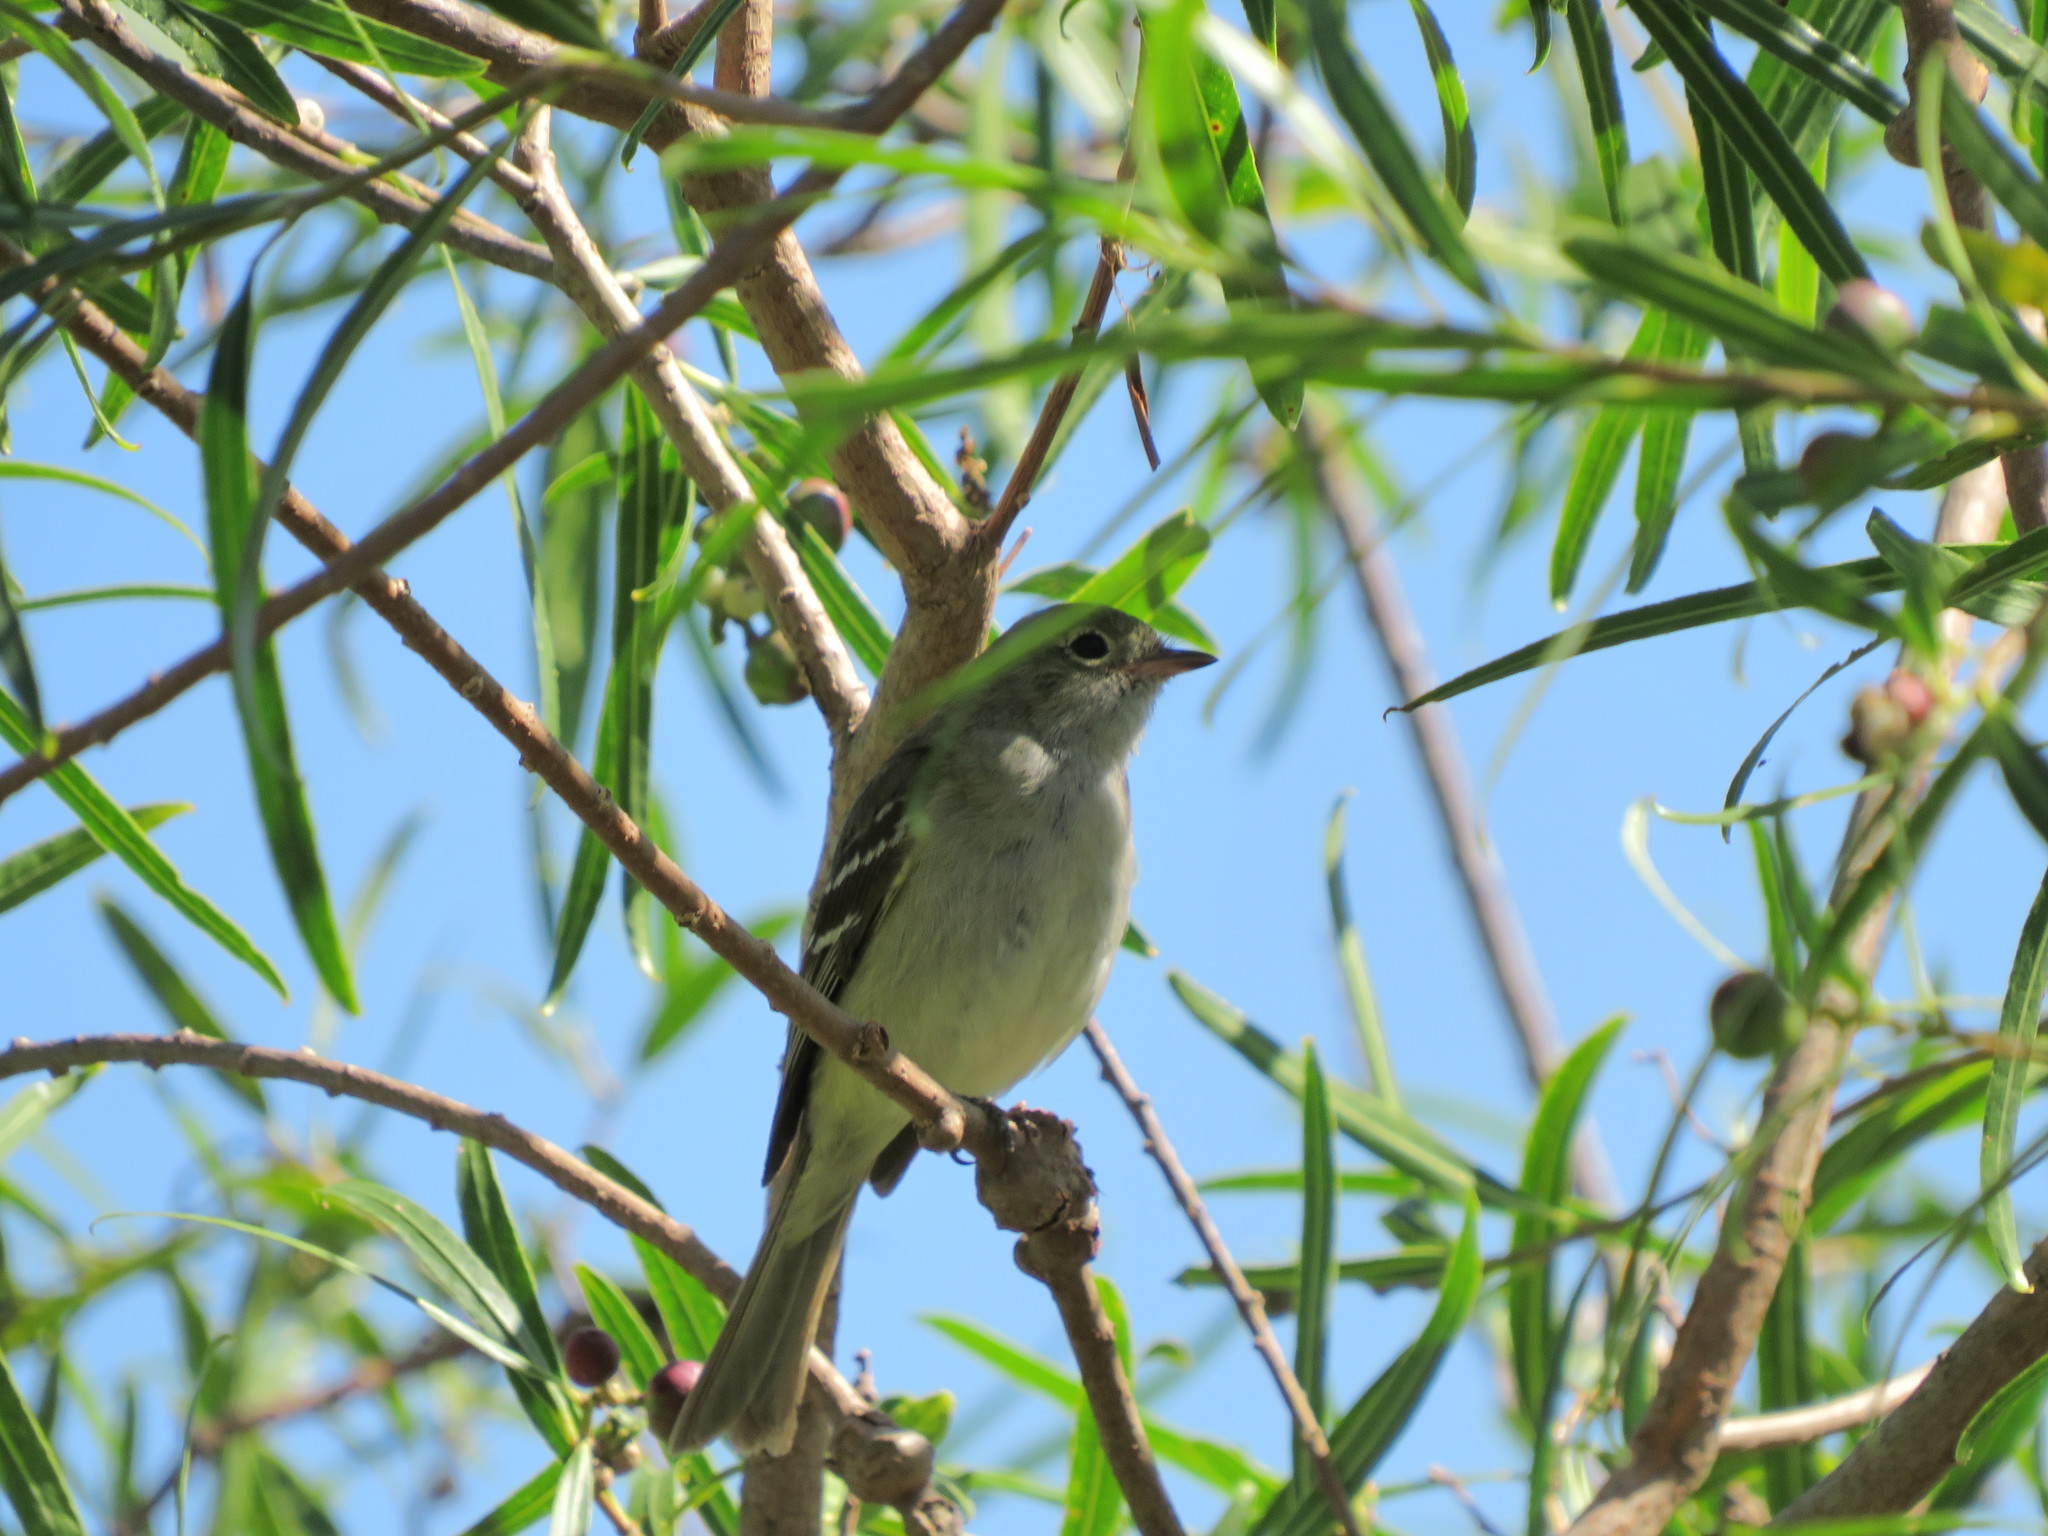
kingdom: Animalia
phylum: Chordata
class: Aves
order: Passeriformes
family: Tyrannidae
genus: Elaenia
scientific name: Elaenia parvirostris
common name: Small-billed elaenia
